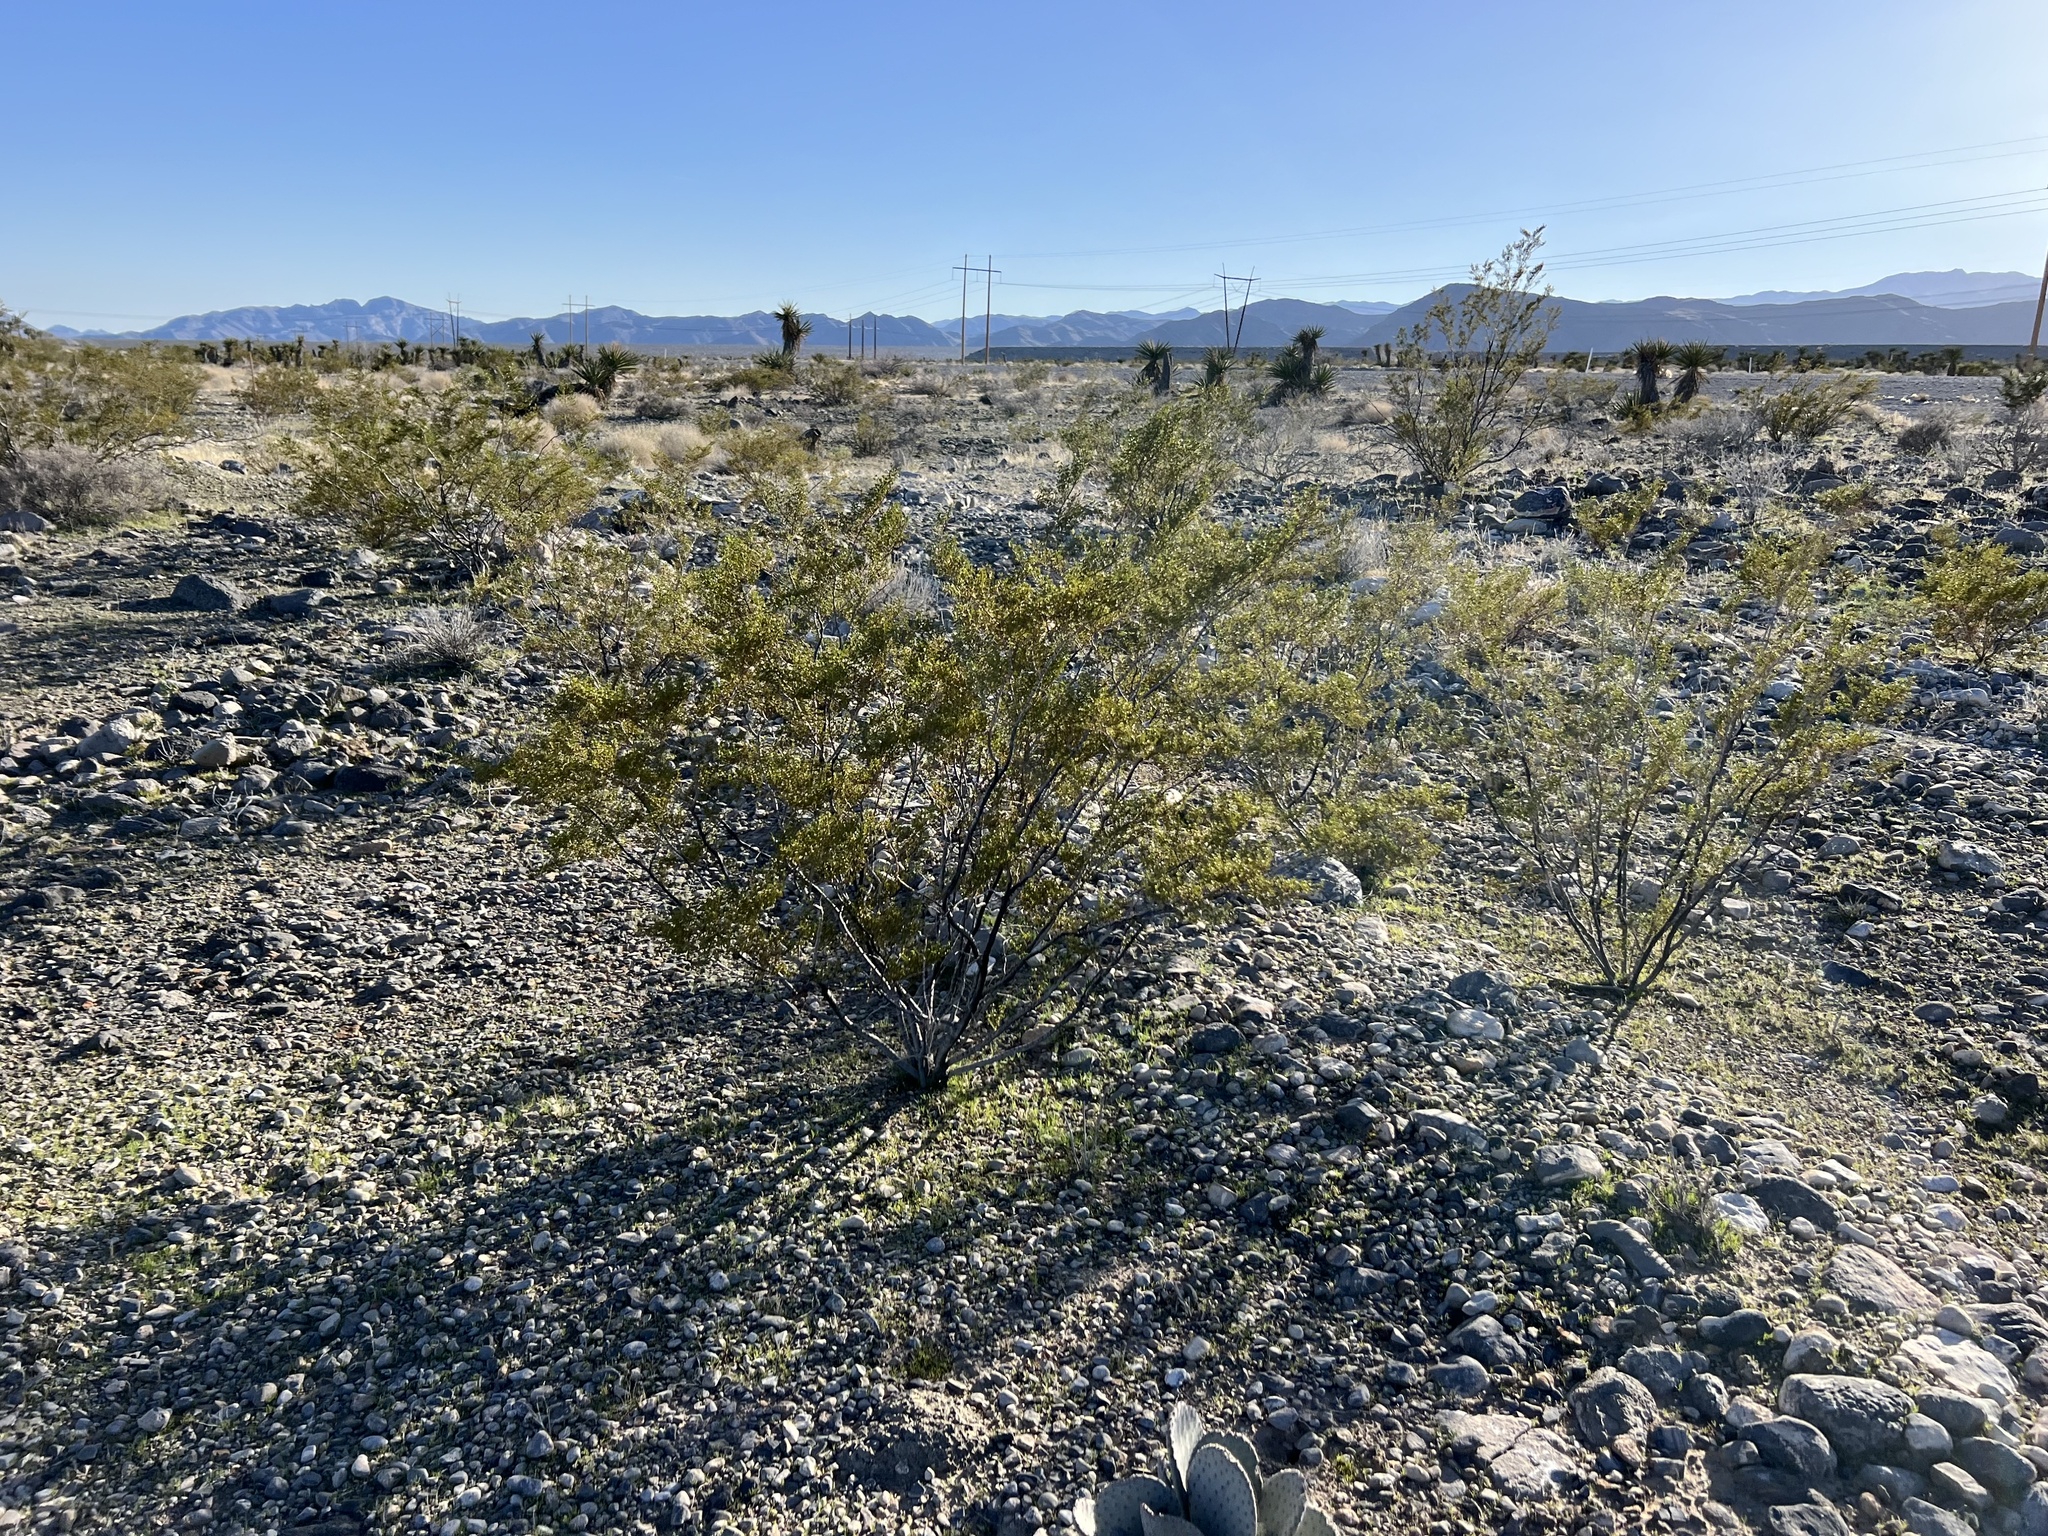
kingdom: Plantae
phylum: Tracheophyta
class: Magnoliopsida
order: Zygophyllales
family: Zygophyllaceae
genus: Larrea
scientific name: Larrea tridentata
